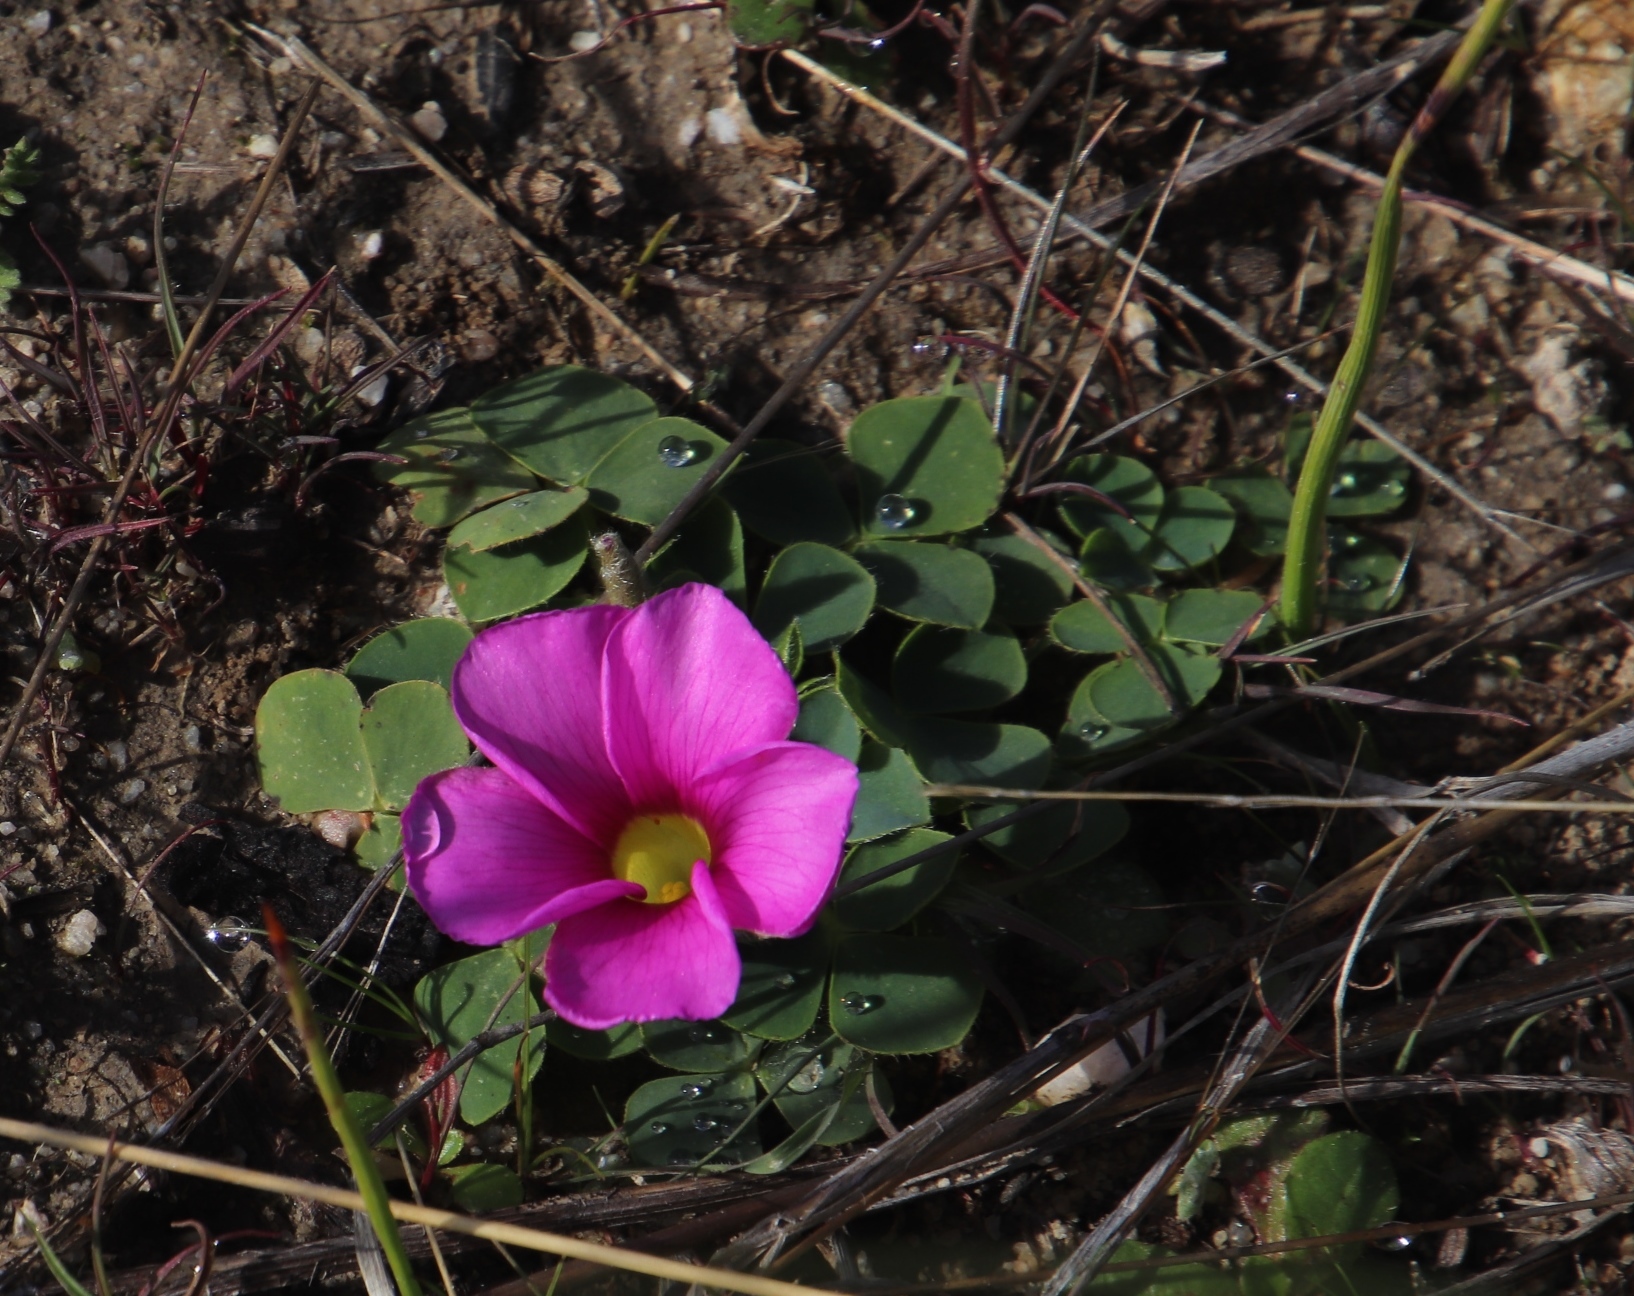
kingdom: Plantae
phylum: Tracheophyta
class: Magnoliopsida
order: Oxalidales
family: Oxalidaceae
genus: Oxalis
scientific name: Oxalis purpurea
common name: Purple woodsorrel
